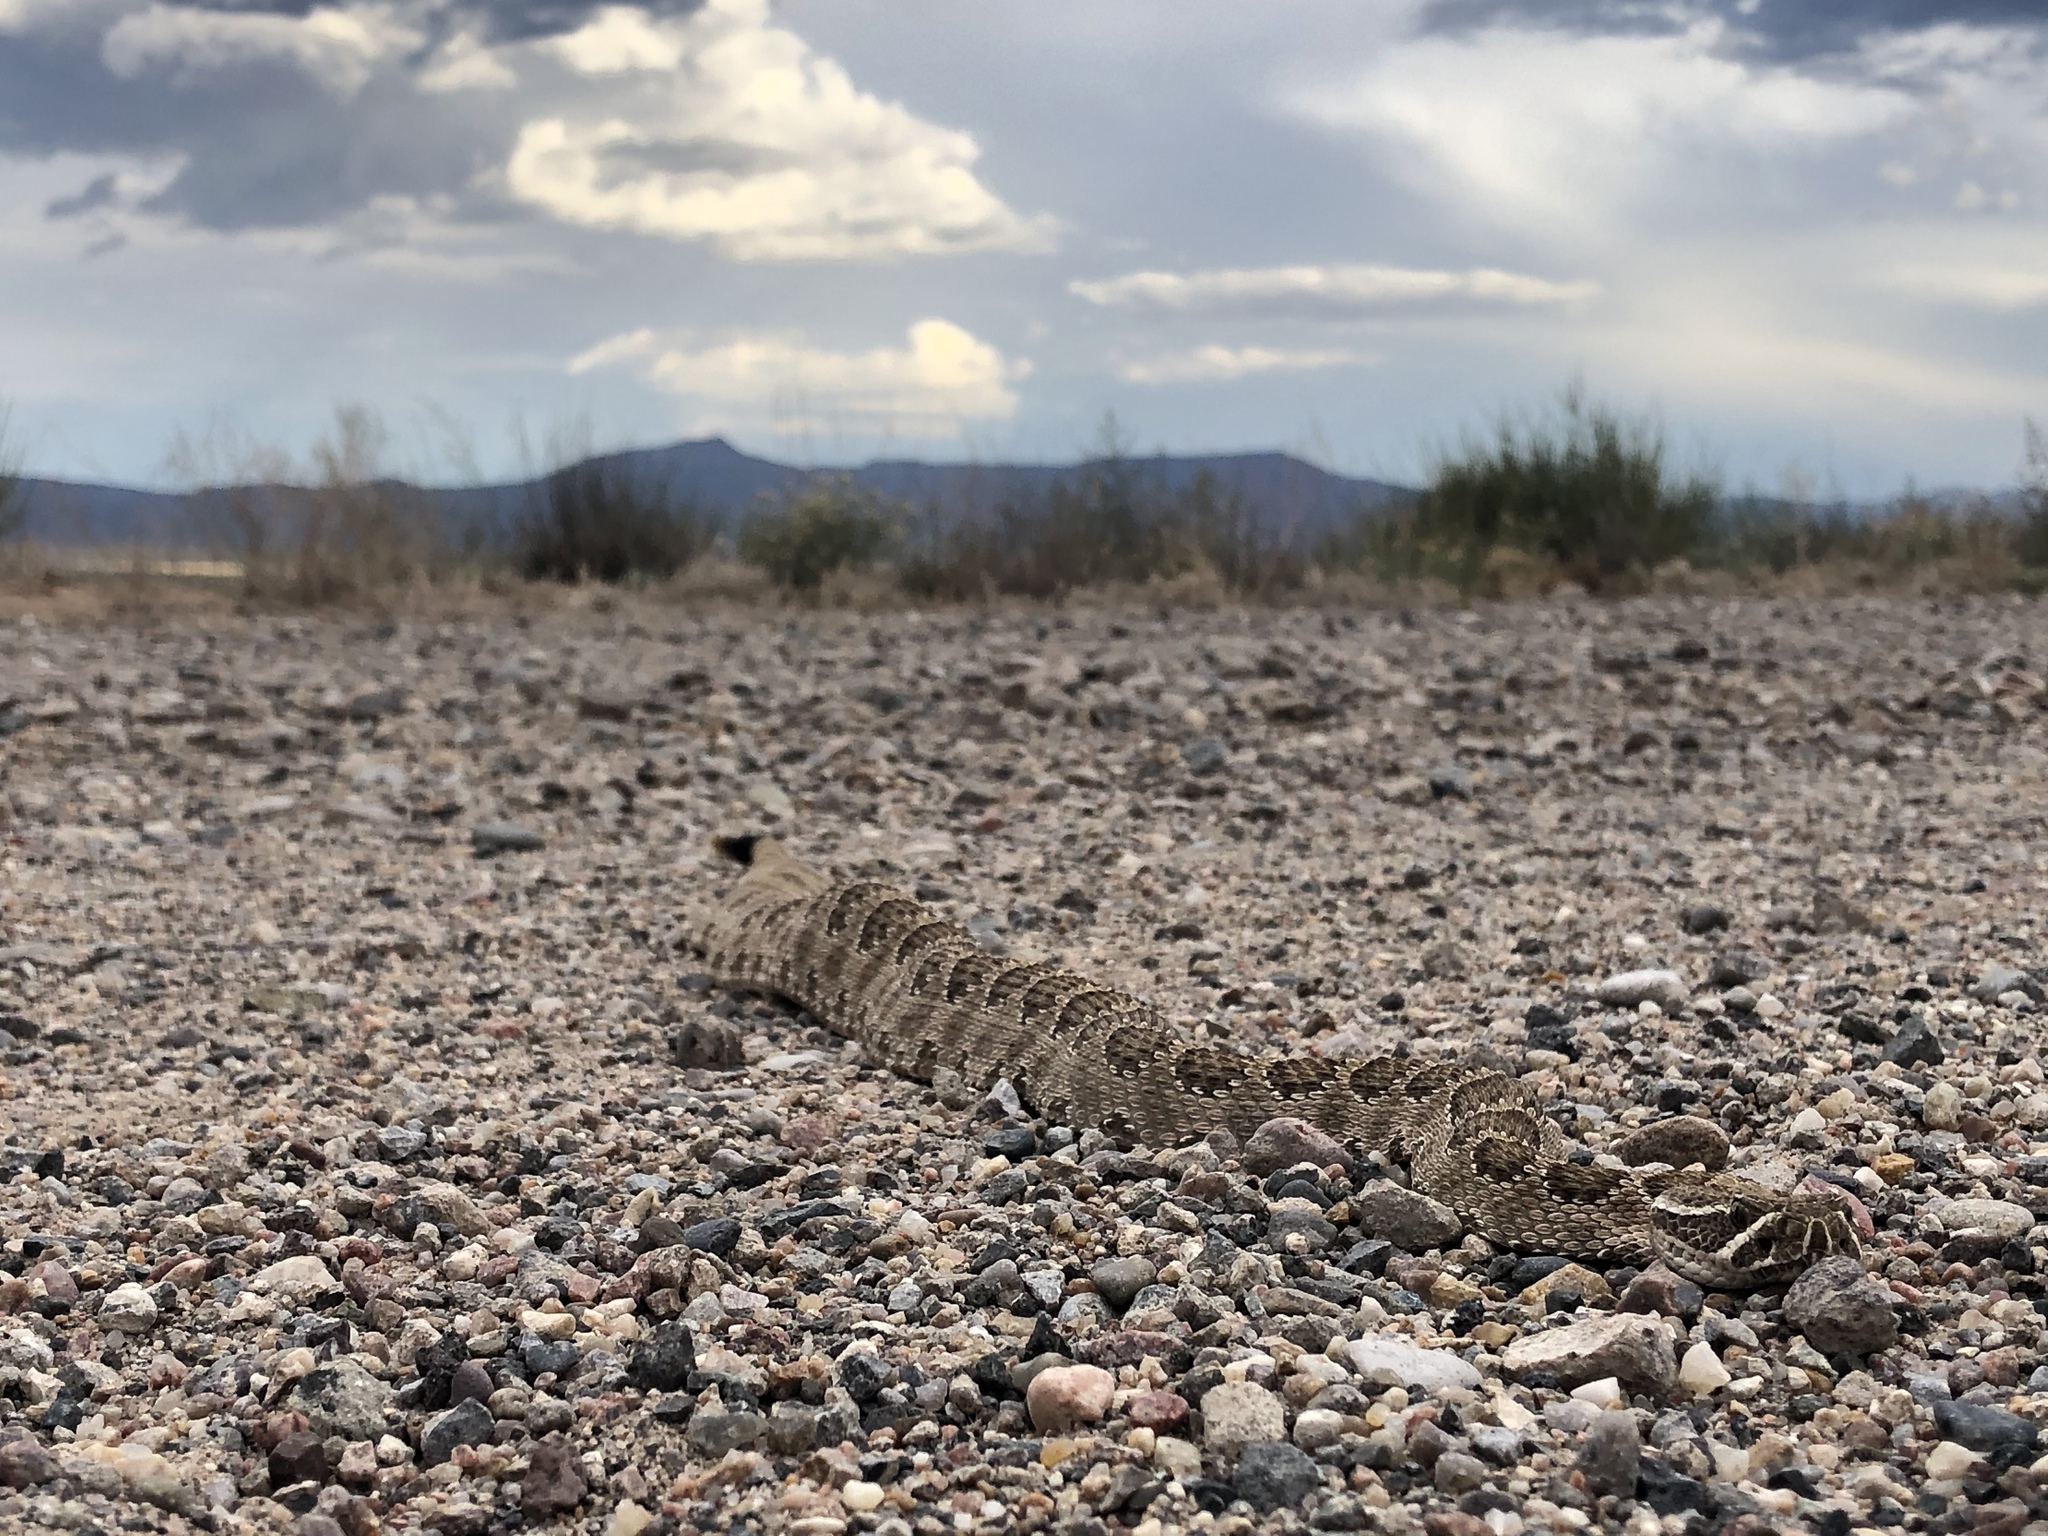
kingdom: Animalia
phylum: Chordata
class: Squamata
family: Viperidae
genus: Crotalus
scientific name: Crotalus viridis
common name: Prairie rattlesnake
